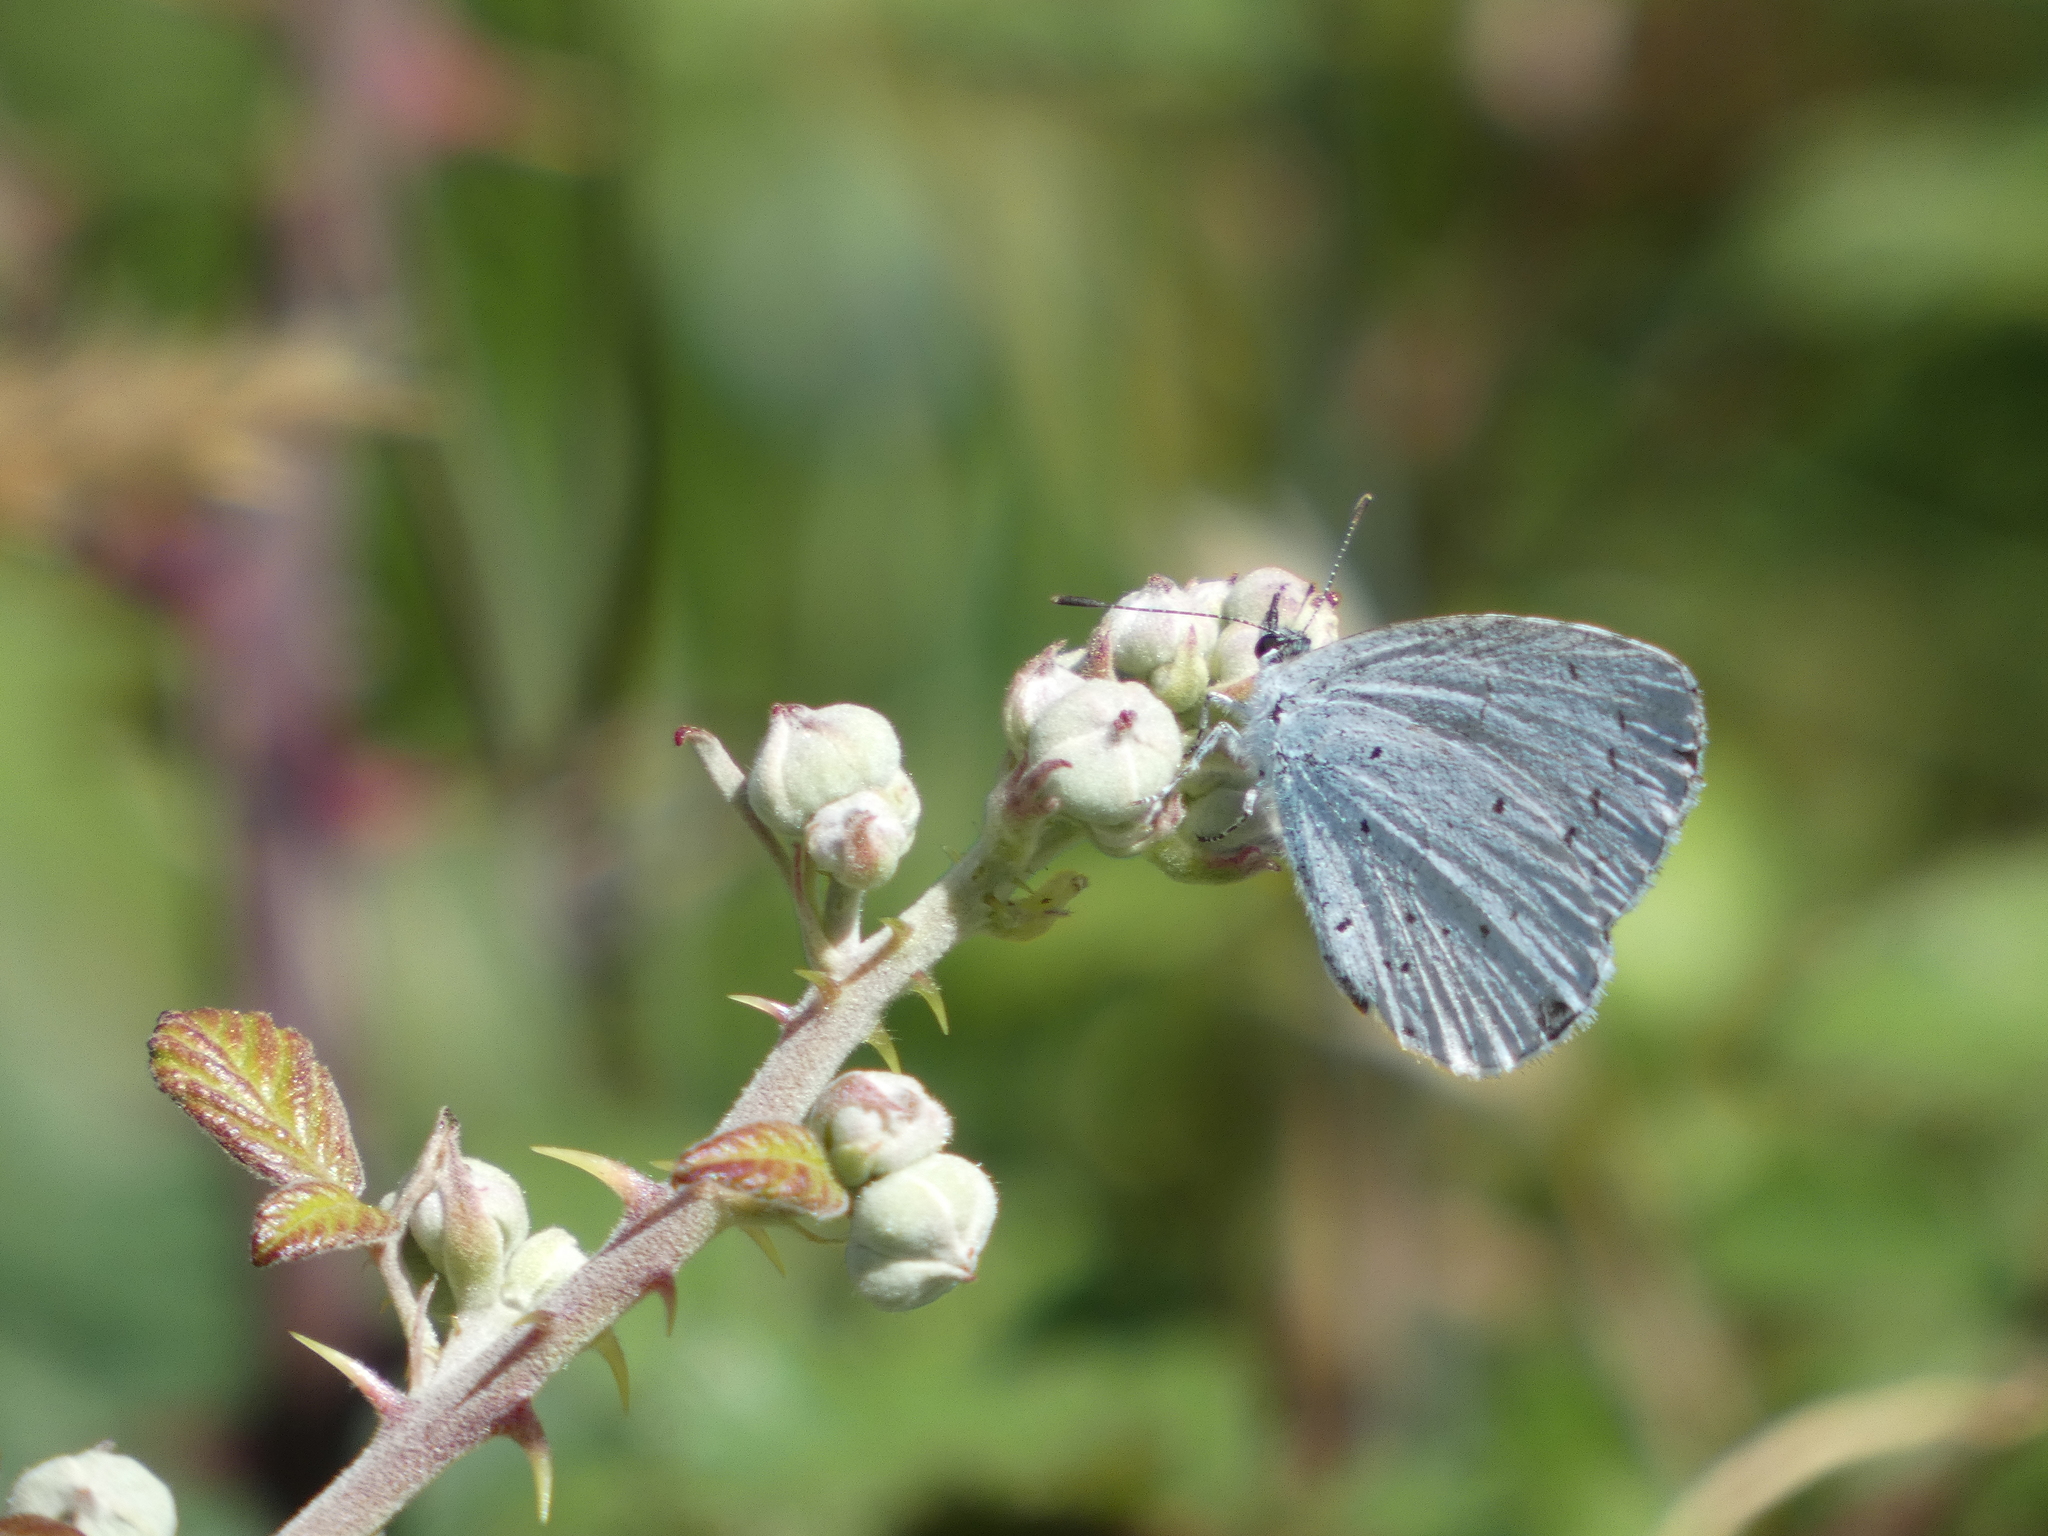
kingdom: Animalia
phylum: Arthropoda
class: Insecta
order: Lepidoptera
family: Lycaenidae
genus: Celastrina
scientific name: Celastrina argiolus
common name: Holly blue
